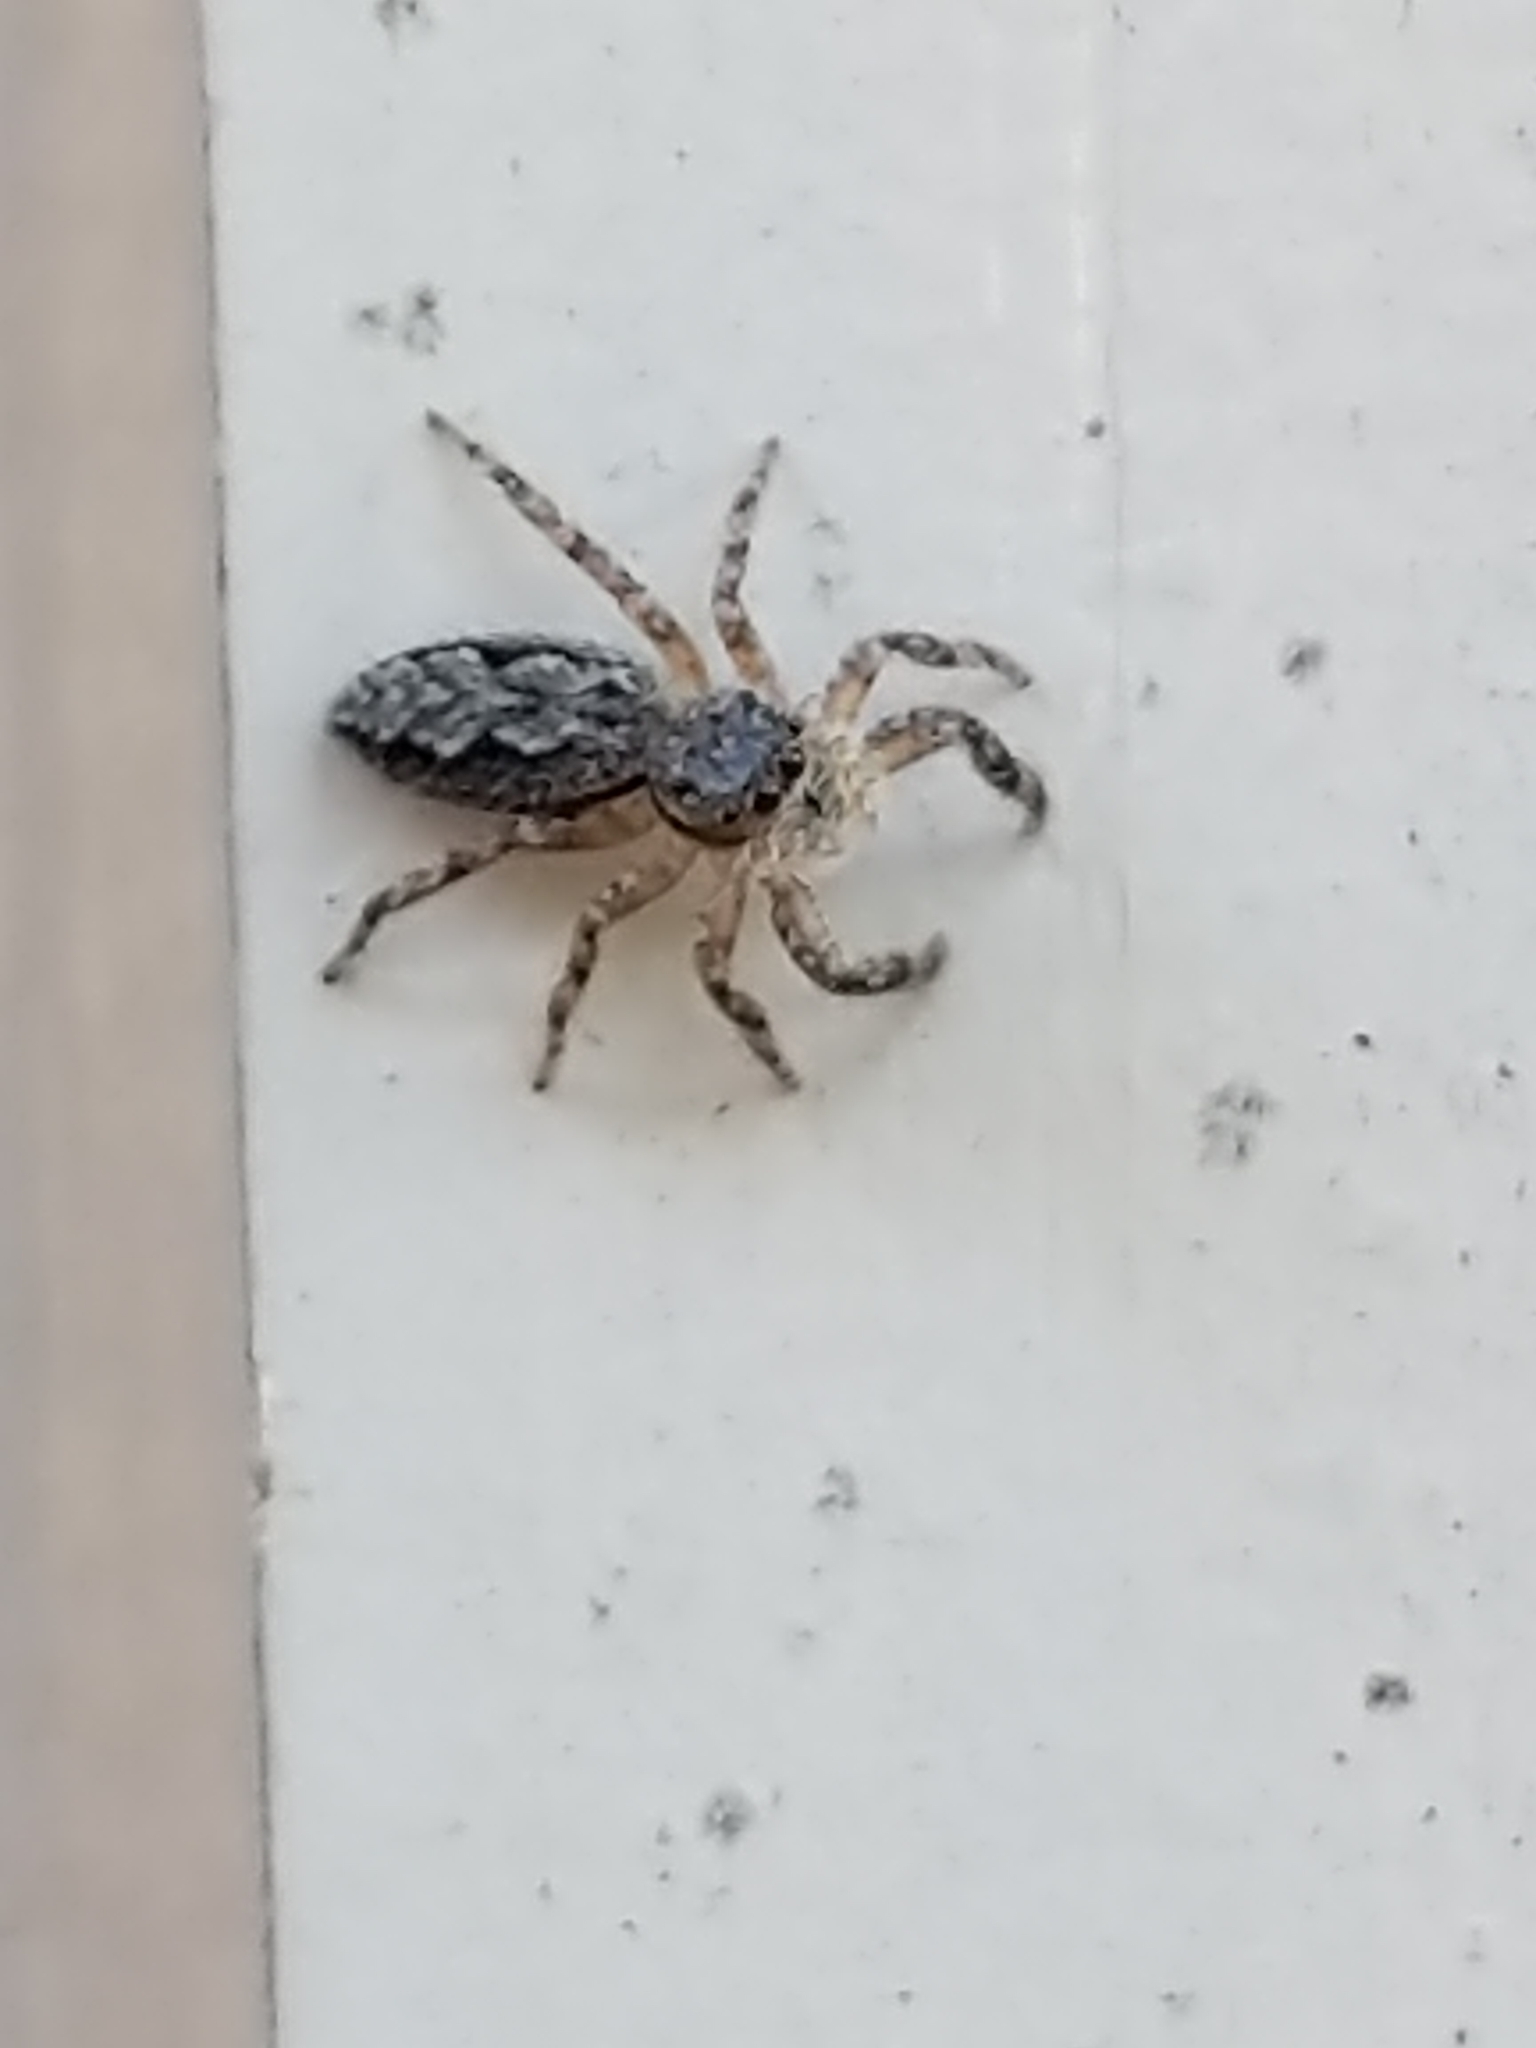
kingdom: Animalia
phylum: Arthropoda
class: Arachnida
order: Araneae
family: Salticidae
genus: Platycryptus
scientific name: Platycryptus undatus
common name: Tan jumping spider
